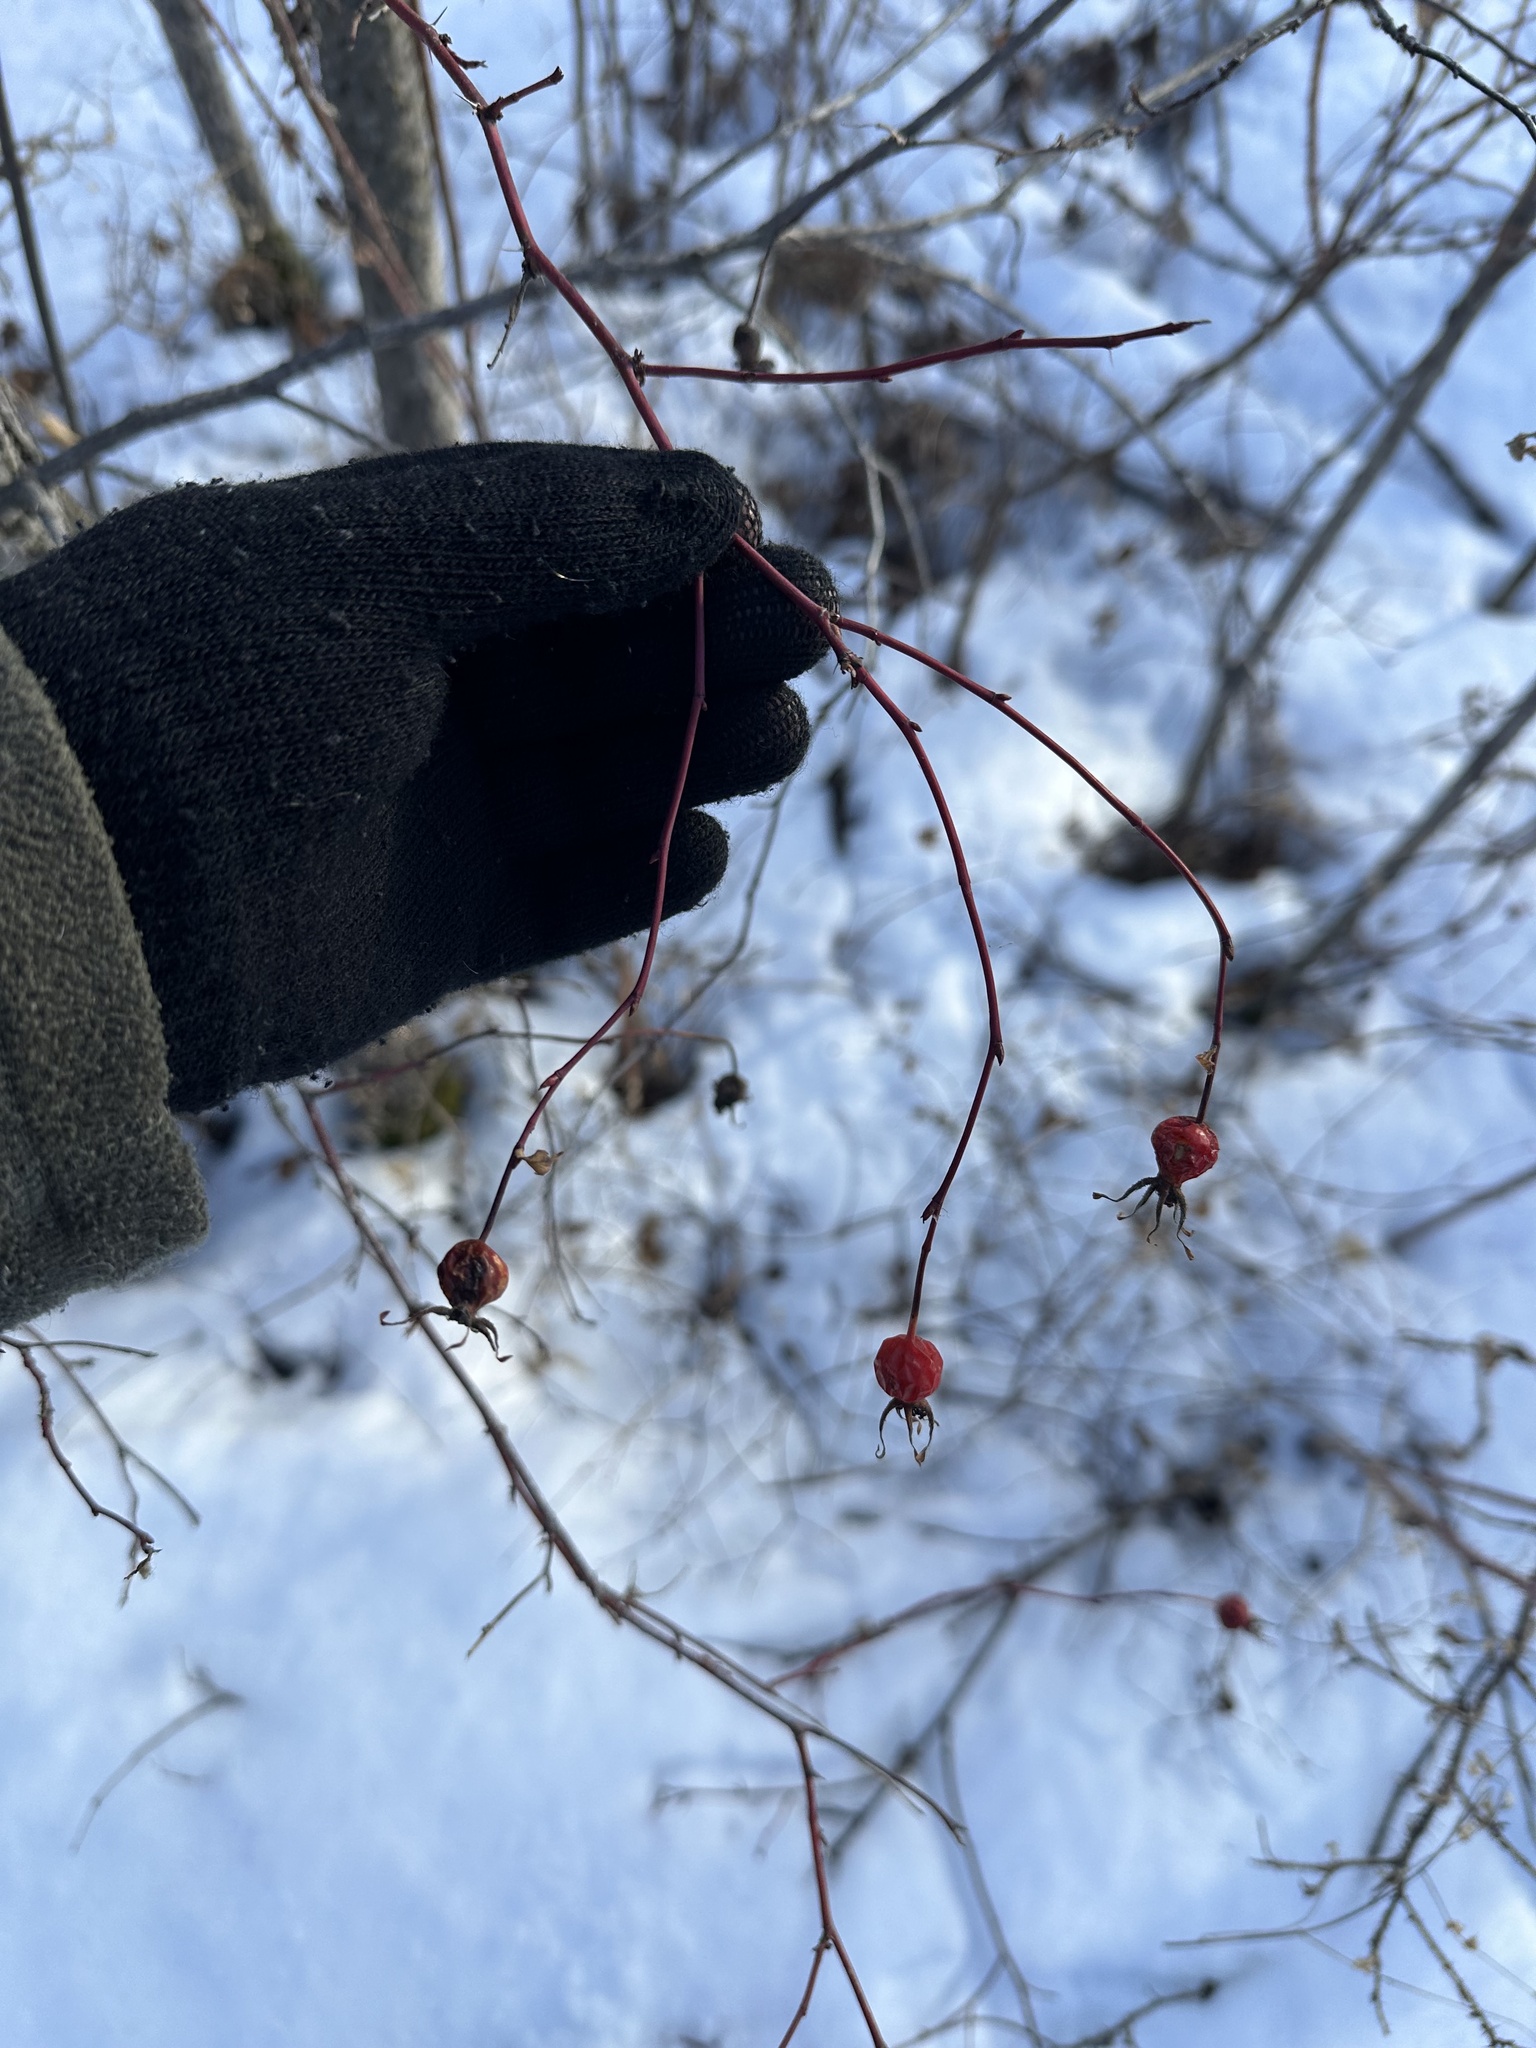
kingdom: Plantae
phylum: Tracheophyta
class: Magnoliopsida
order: Rosales
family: Rosaceae
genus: Rosa
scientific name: Rosa woodsii
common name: Woods's rose
